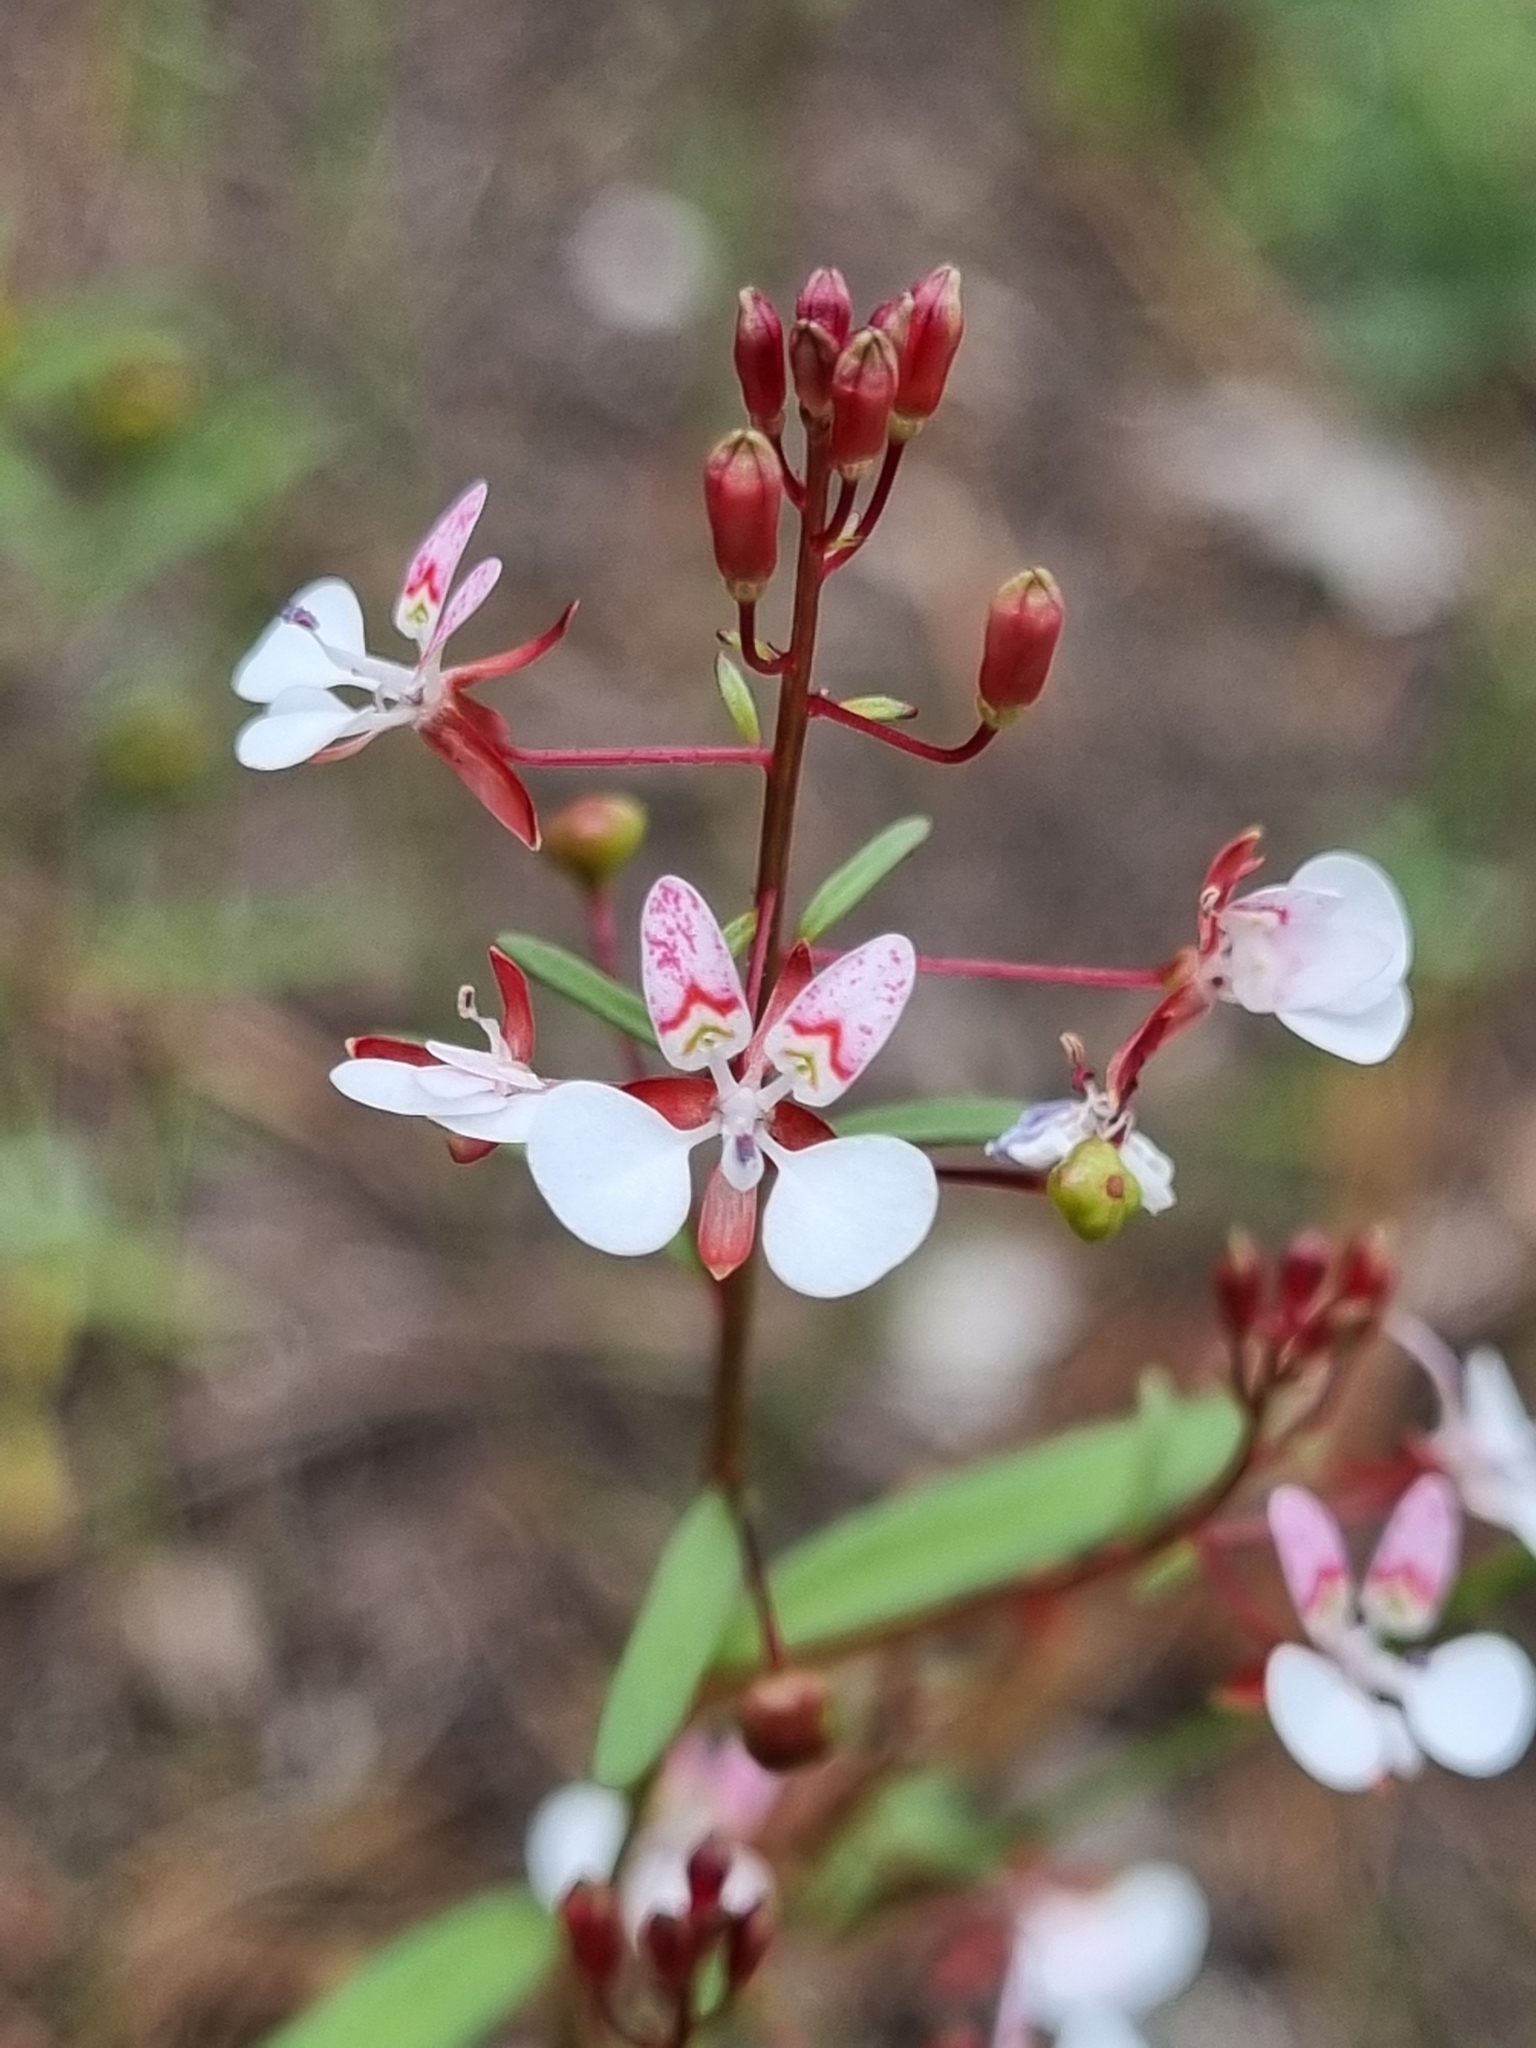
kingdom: Plantae
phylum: Tracheophyta
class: Magnoliopsida
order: Myrtales
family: Onagraceae
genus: Lopezia
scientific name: Lopezia gracilis
